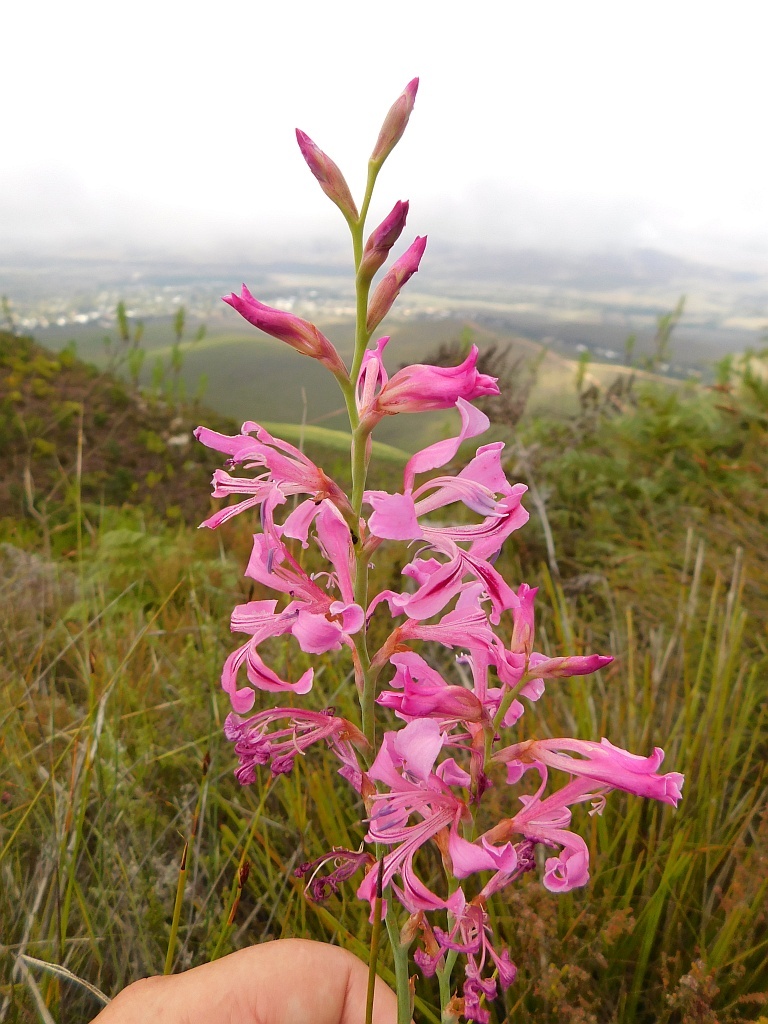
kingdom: Plantae
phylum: Tracheophyta
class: Liliopsida
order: Asparagales
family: Iridaceae
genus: Tritoniopsis
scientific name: Tritoniopsis lata
